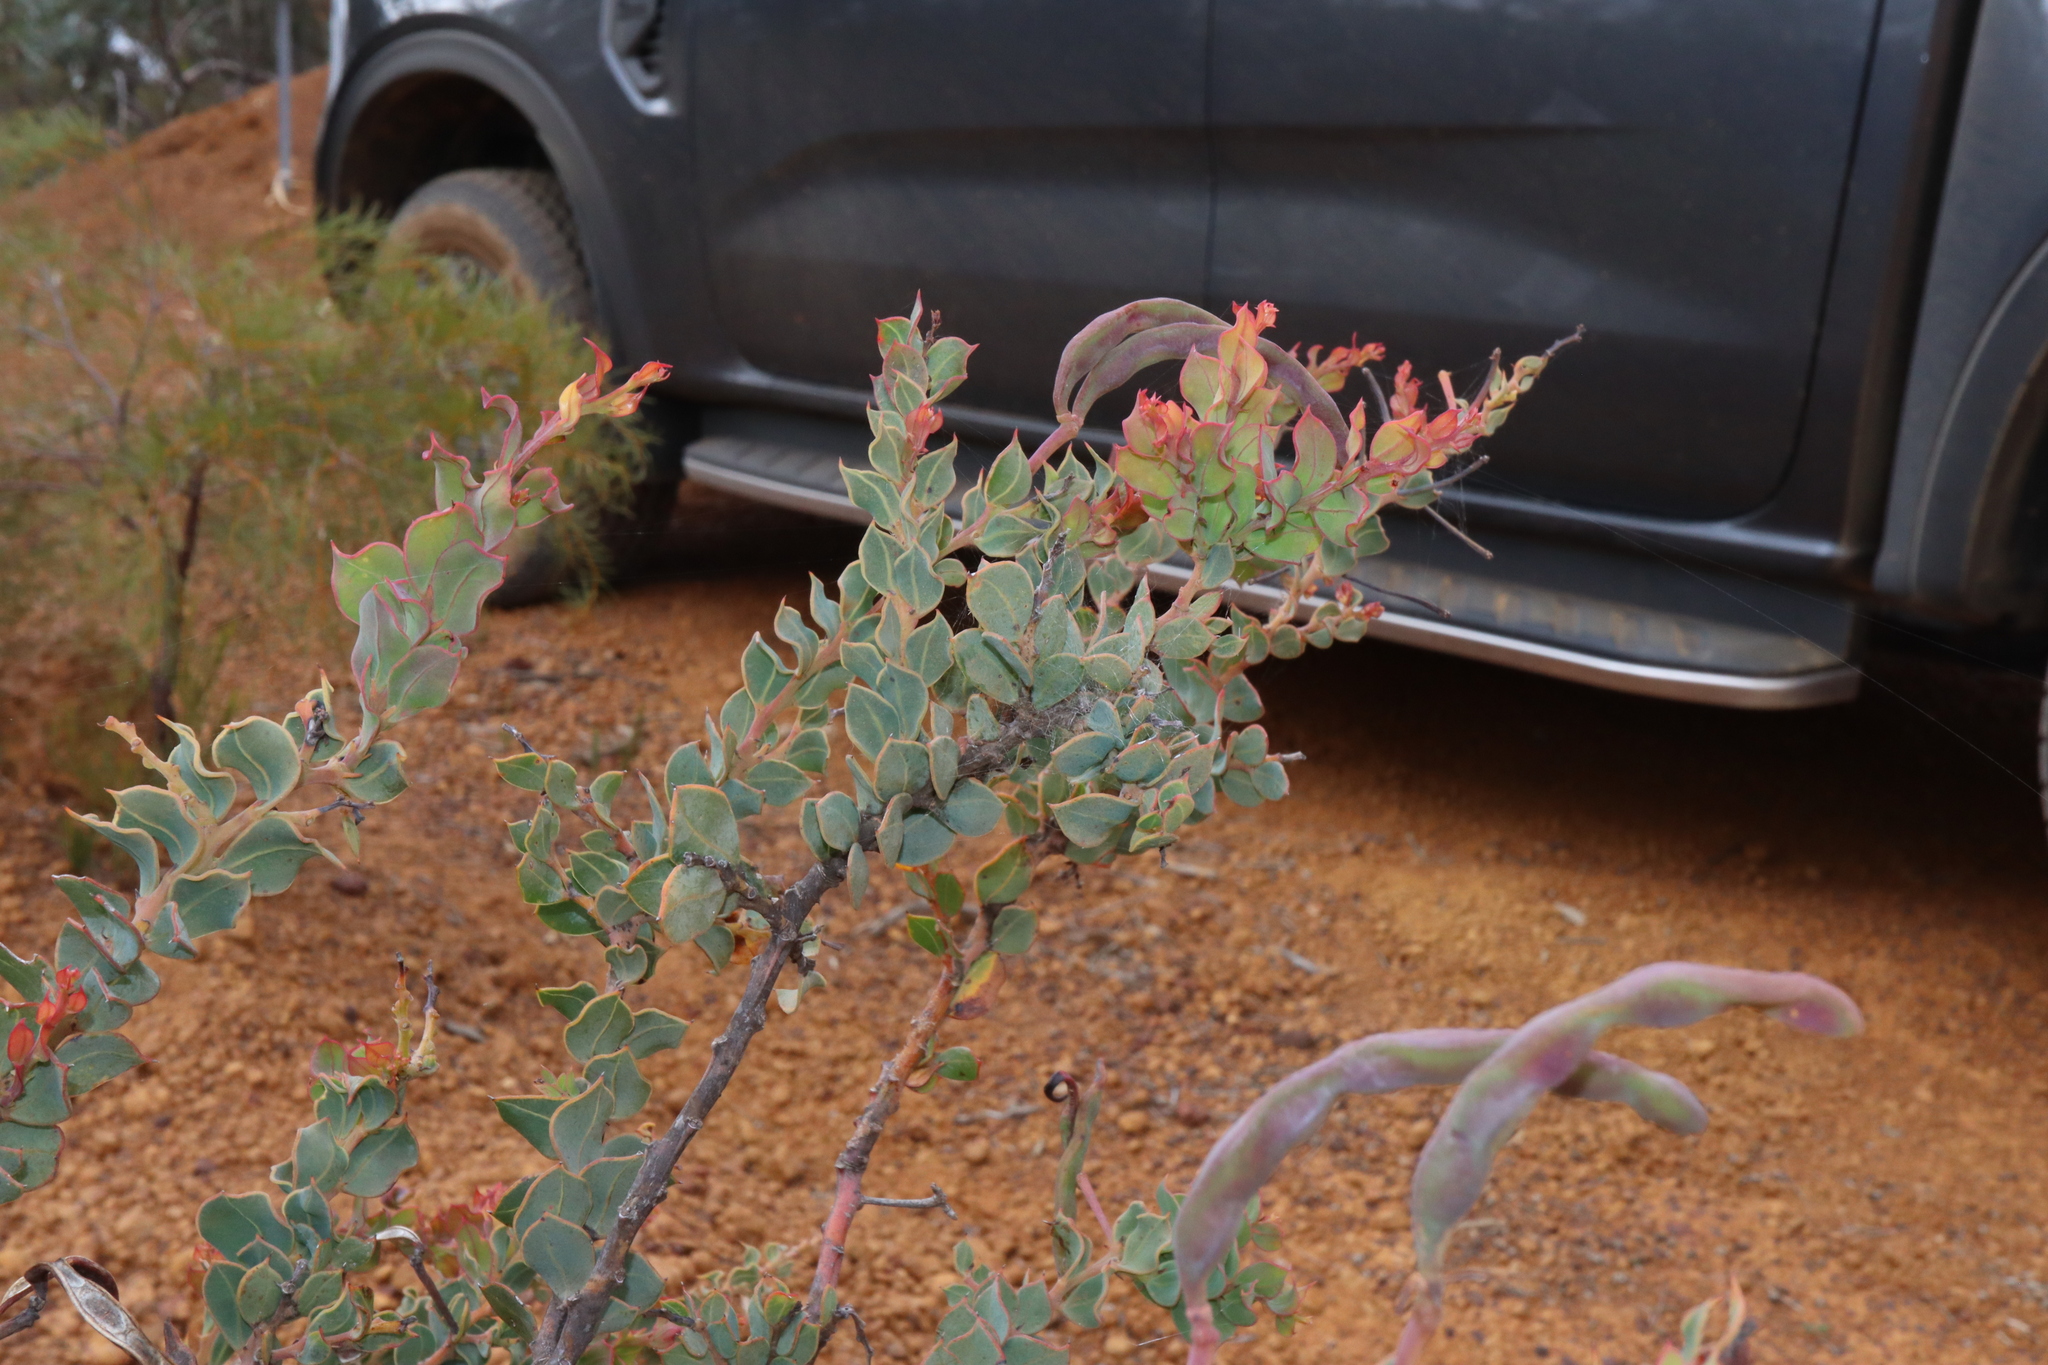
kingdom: Plantae
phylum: Tracheophyta
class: Magnoliopsida
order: Fabales
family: Fabaceae
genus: Acacia
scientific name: Acacia heterochroa
